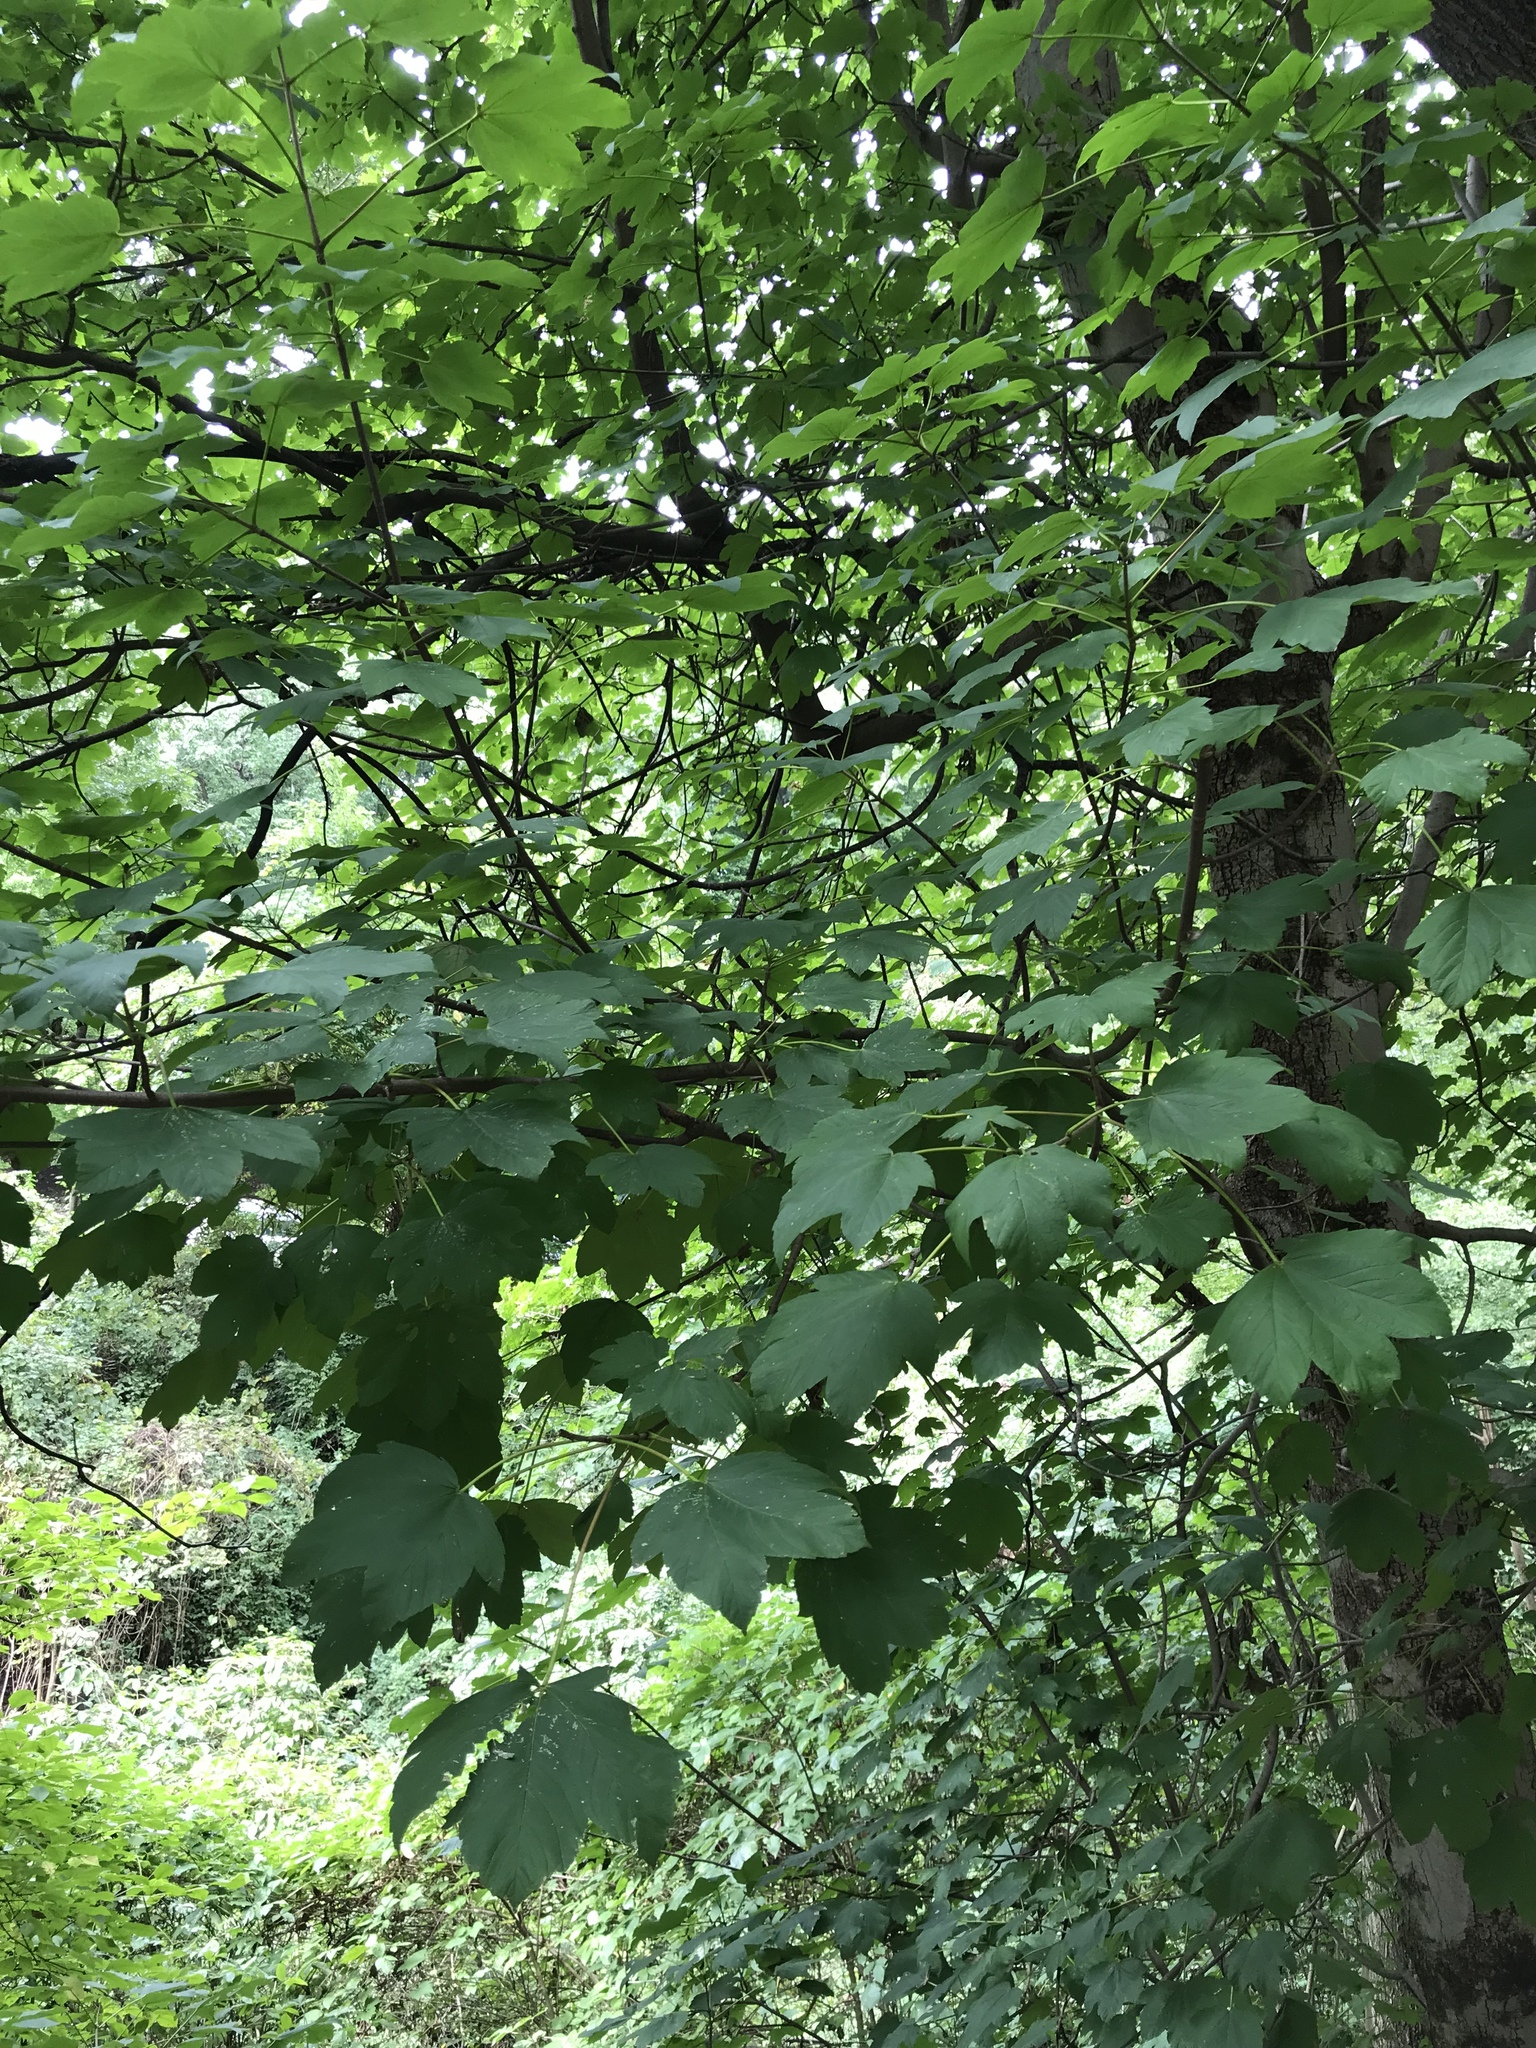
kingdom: Plantae
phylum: Tracheophyta
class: Magnoliopsida
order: Sapindales
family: Sapindaceae
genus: Acer
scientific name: Acer pseudoplatanus
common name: Sycamore
